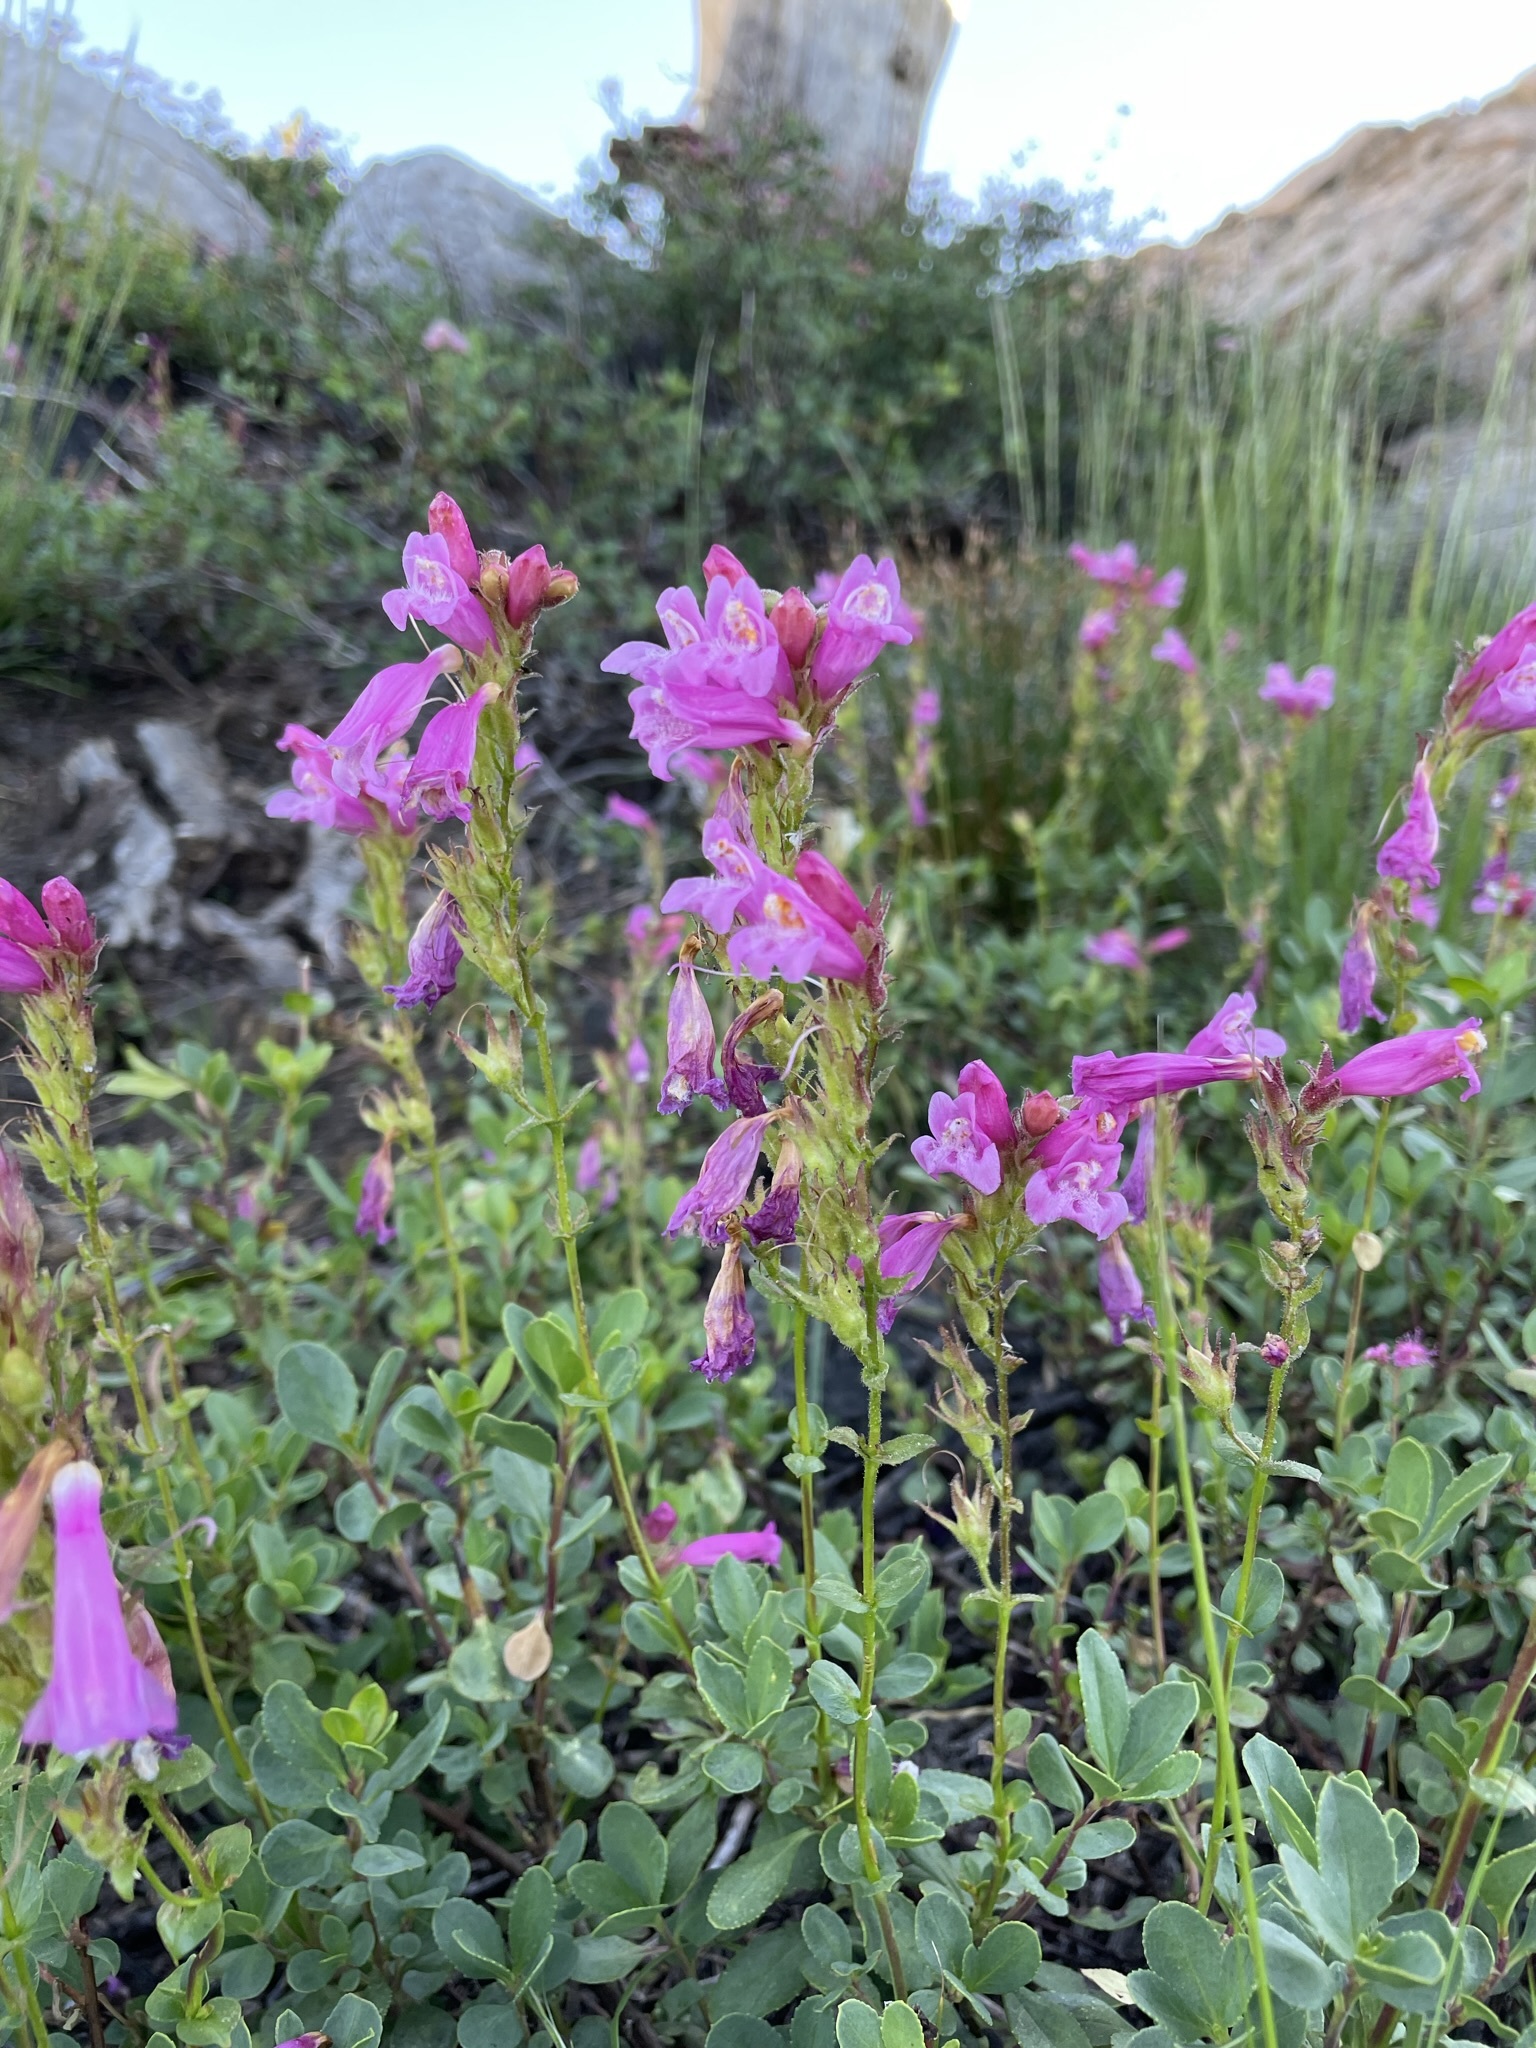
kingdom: Plantae
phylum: Tracheophyta
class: Magnoliopsida
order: Lamiales
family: Plantaginaceae
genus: Penstemon
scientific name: Penstemon newberryi
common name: Mountain-pride
